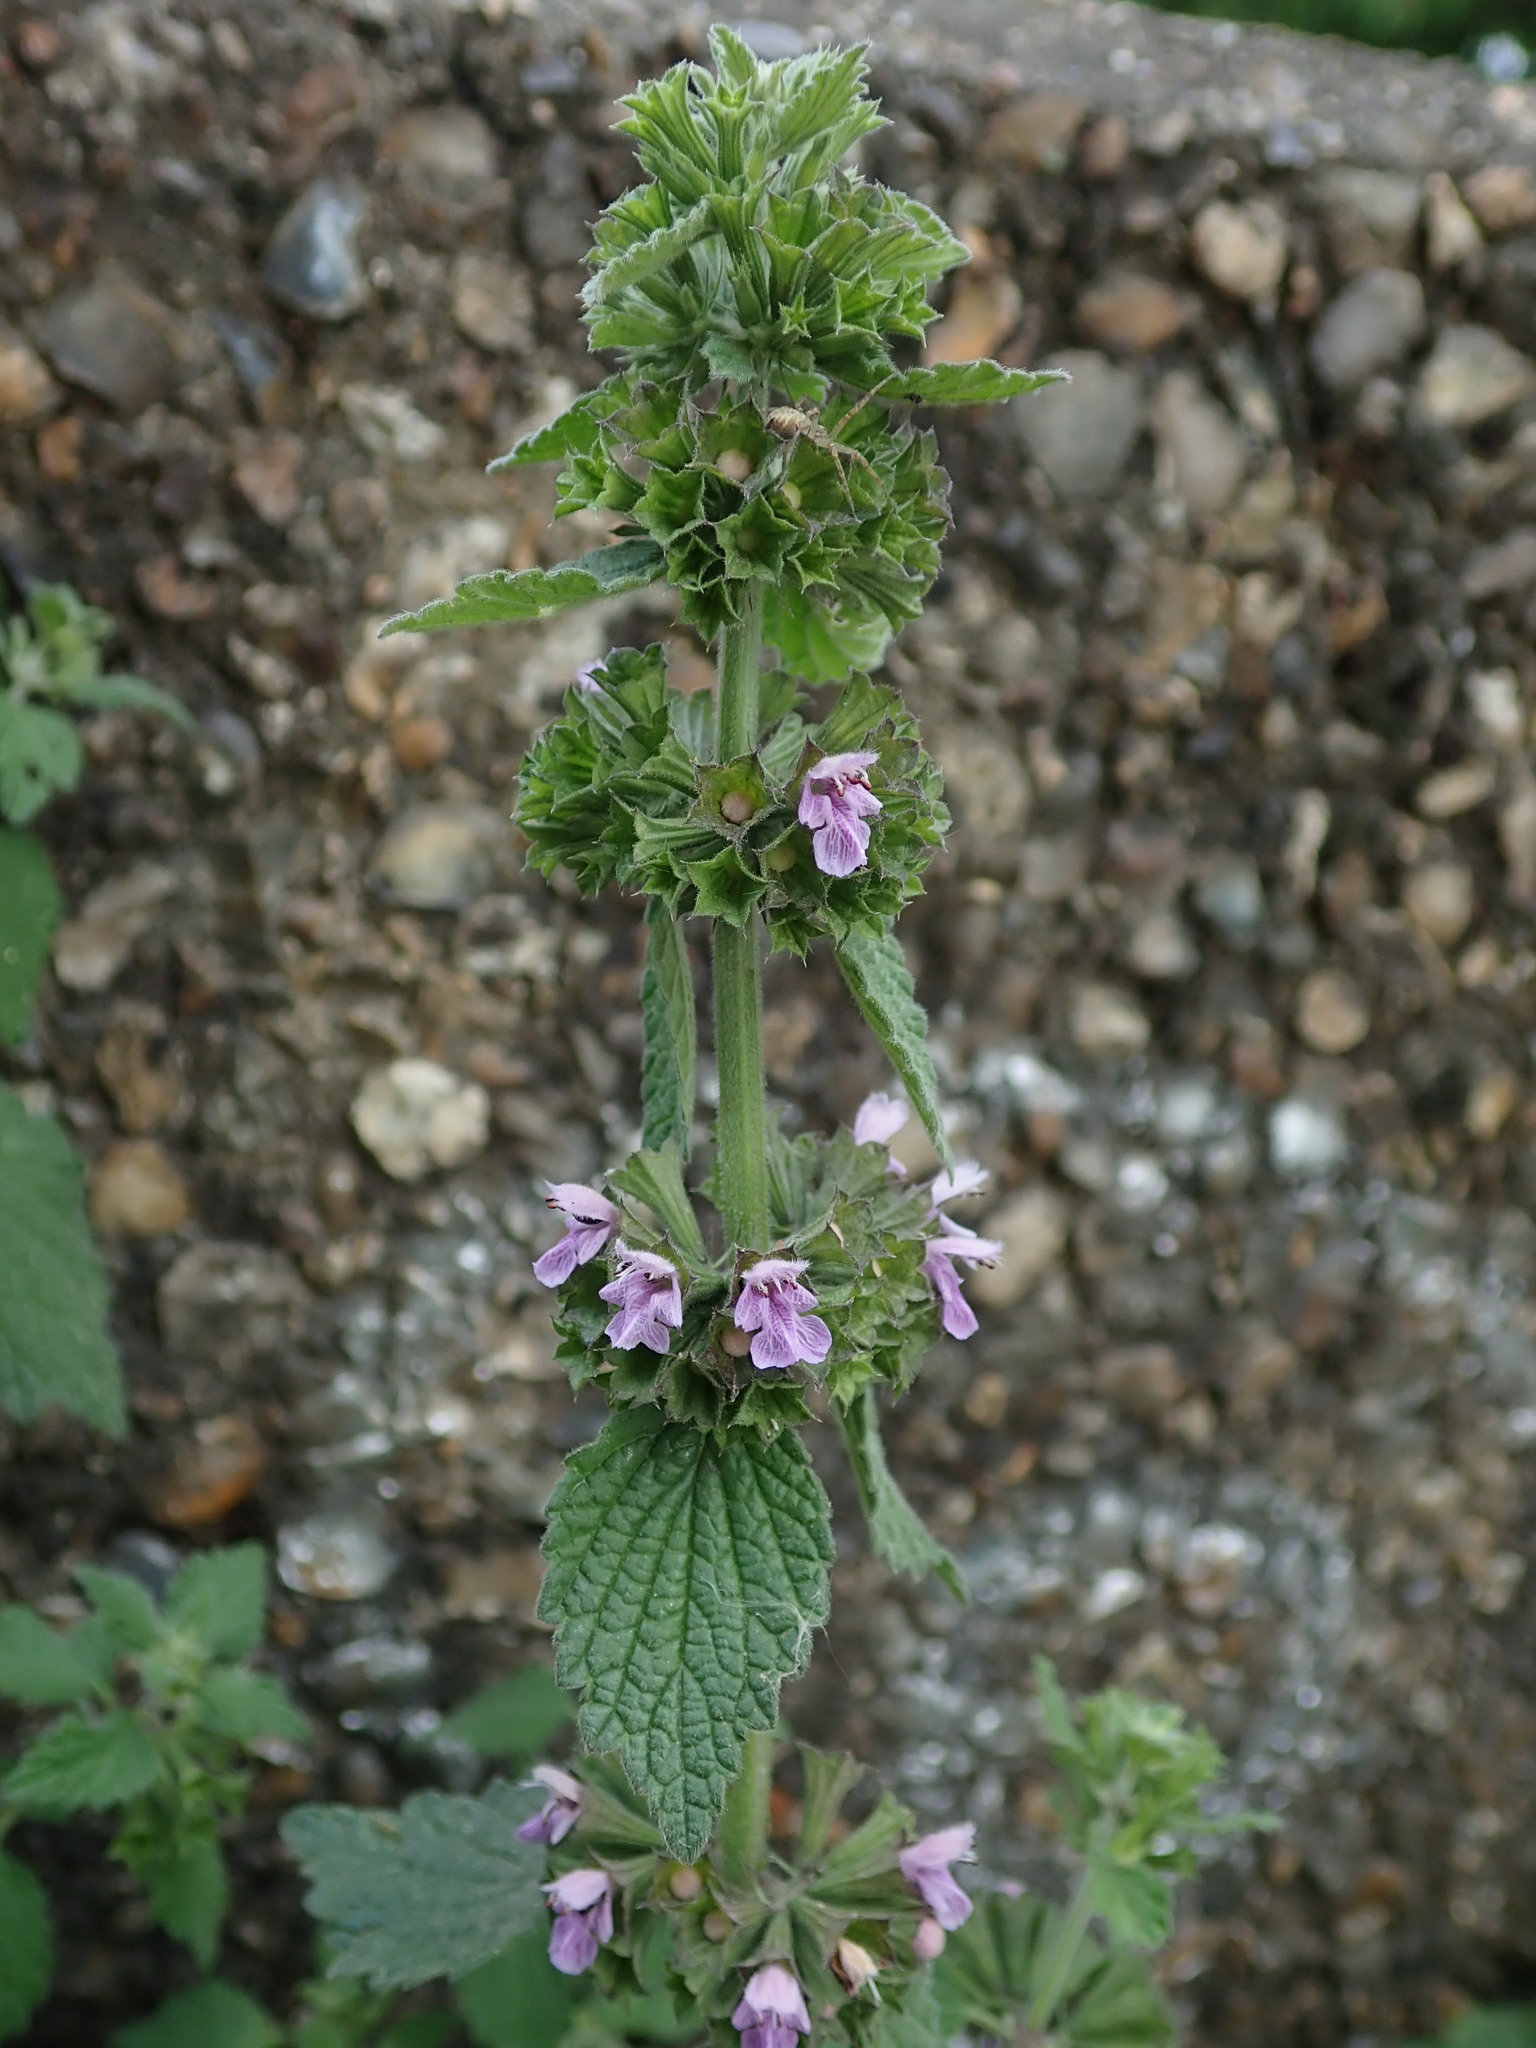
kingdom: Plantae
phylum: Tracheophyta
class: Magnoliopsida
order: Lamiales
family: Lamiaceae
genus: Ballota
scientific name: Ballota nigra
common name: Black horehound
